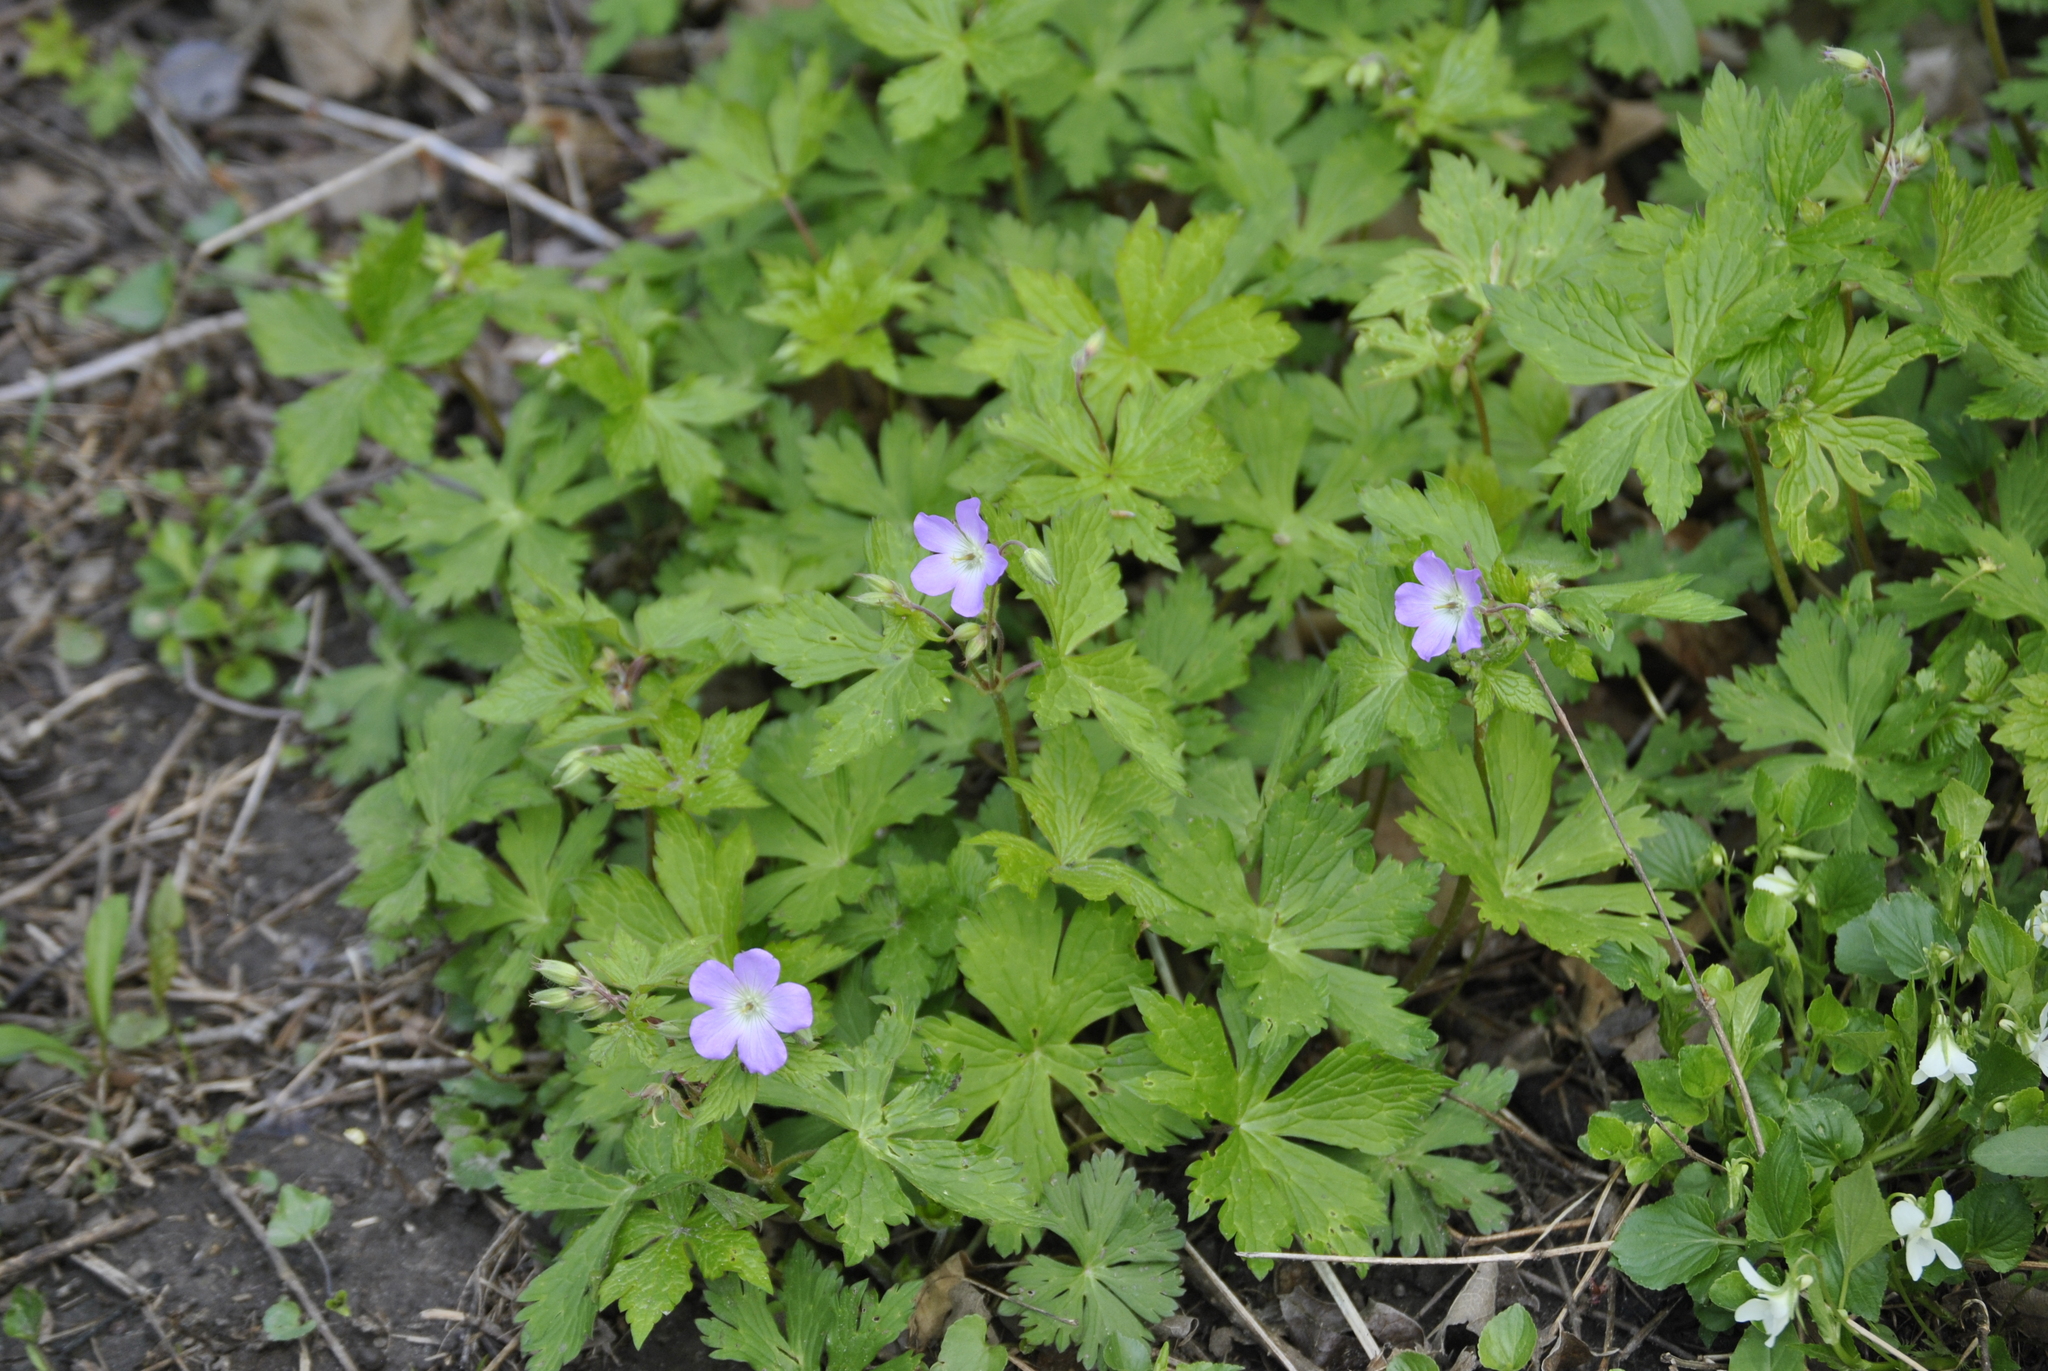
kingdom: Plantae
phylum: Tracheophyta
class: Magnoliopsida
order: Geraniales
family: Geraniaceae
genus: Geranium
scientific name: Geranium maculatum
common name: Spotted geranium
